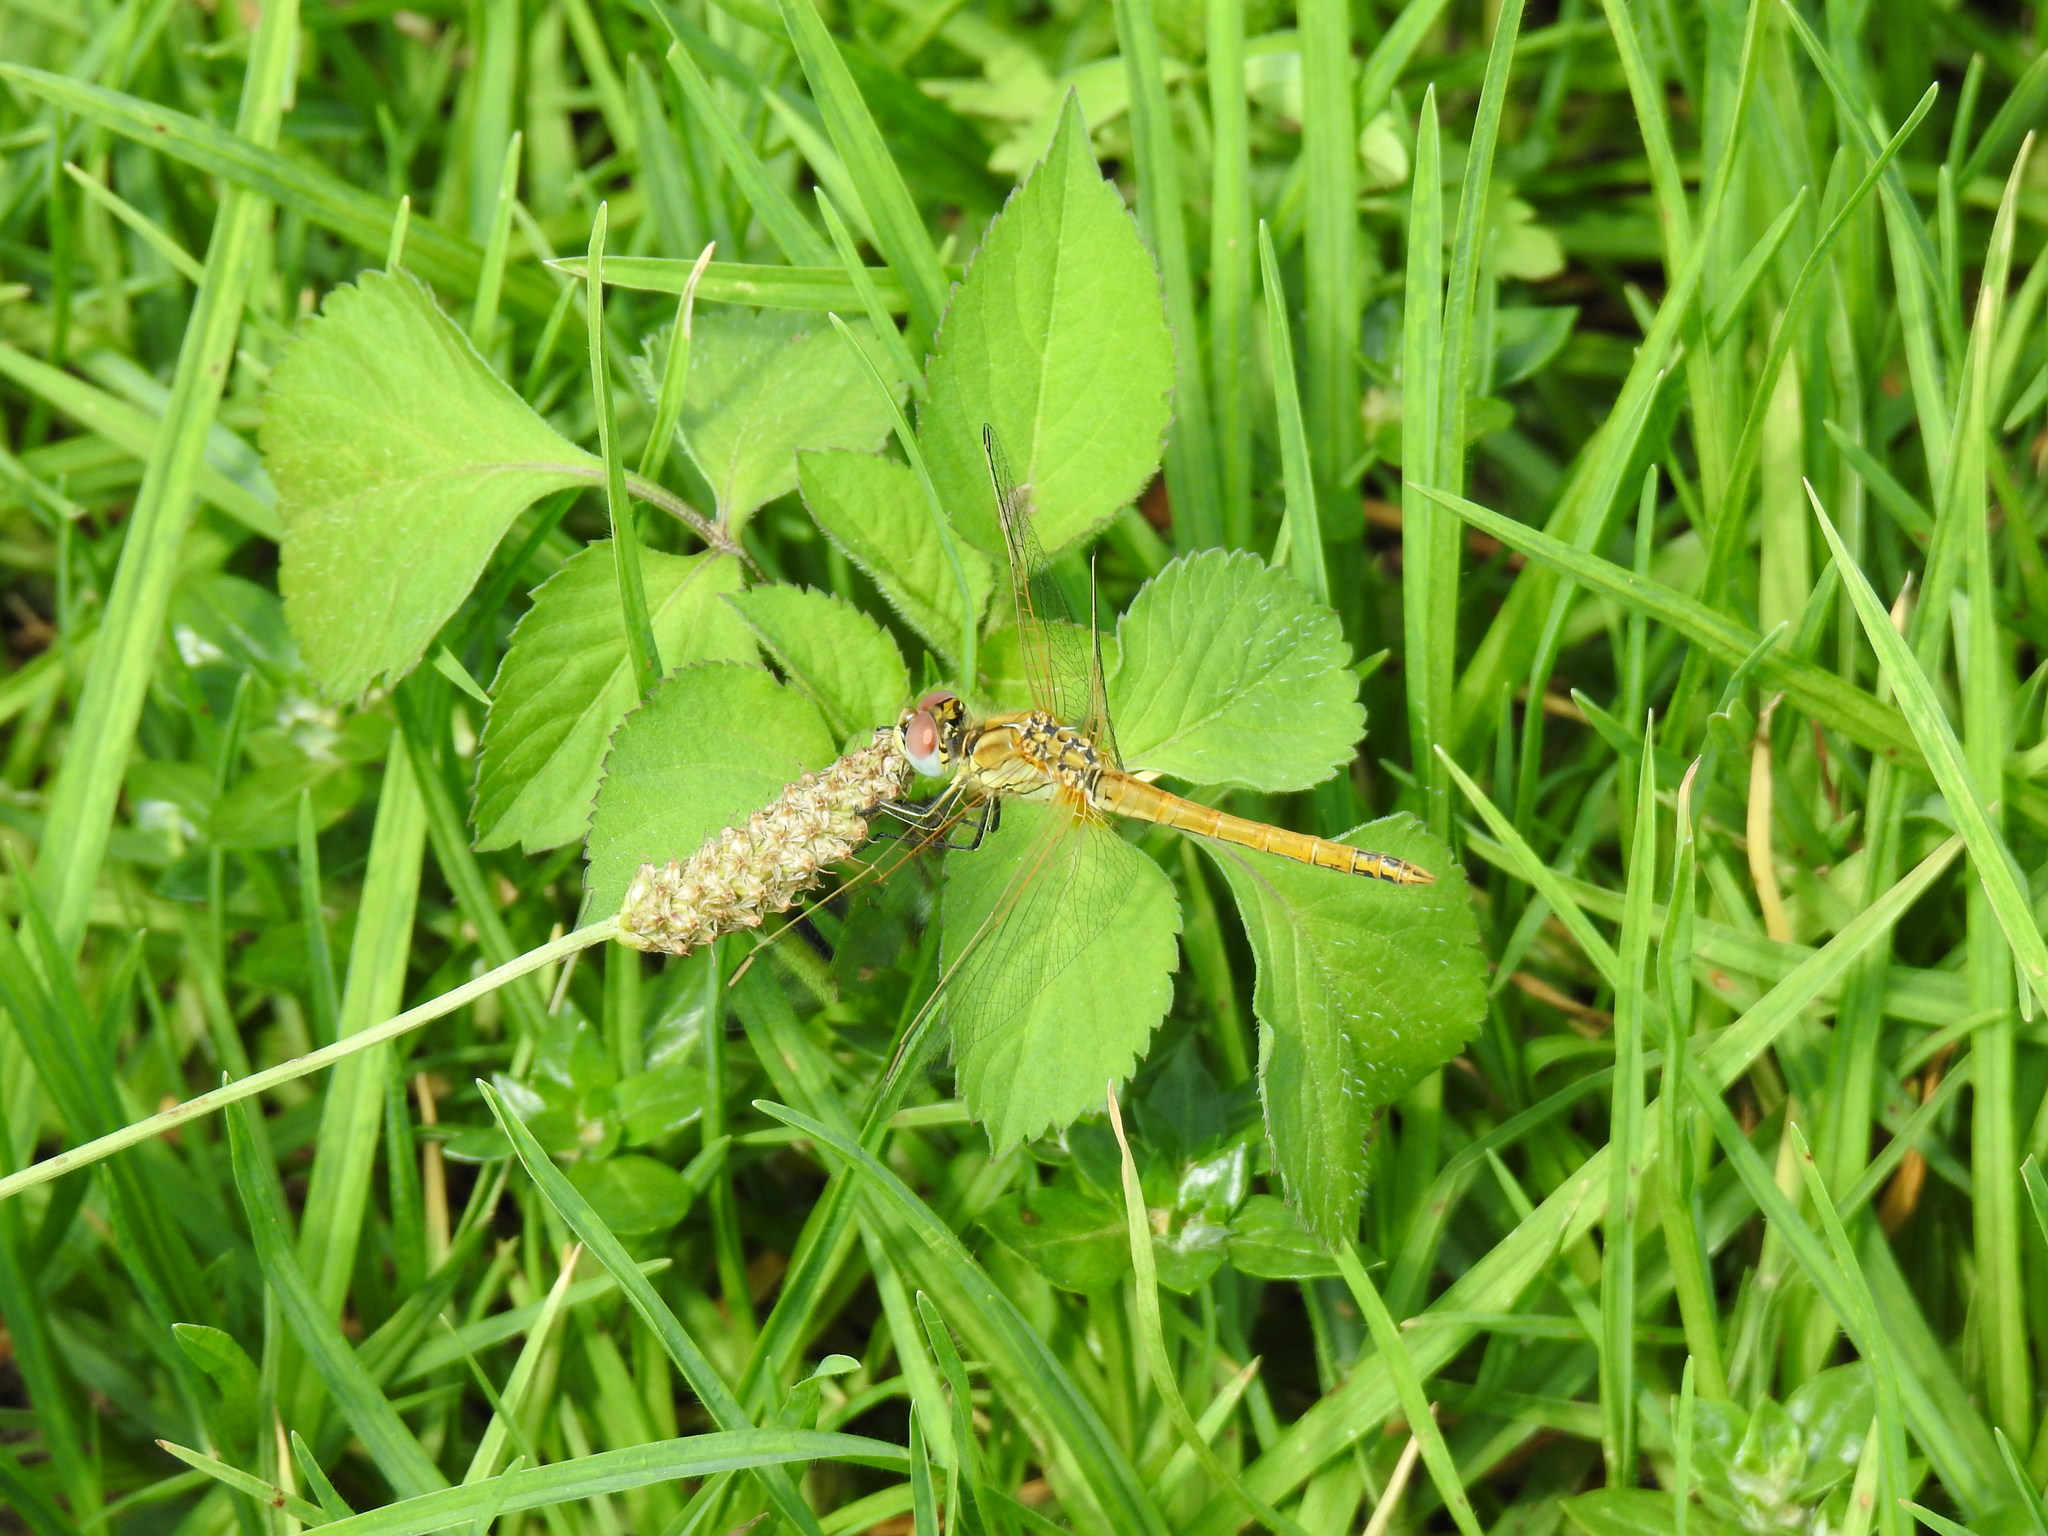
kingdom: Animalia
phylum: Arthropoda
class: Insecta
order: Odonata
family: Libellulidae
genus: Sympetrum
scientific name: Sympetrum fonscolombii
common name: Red-veined darter
